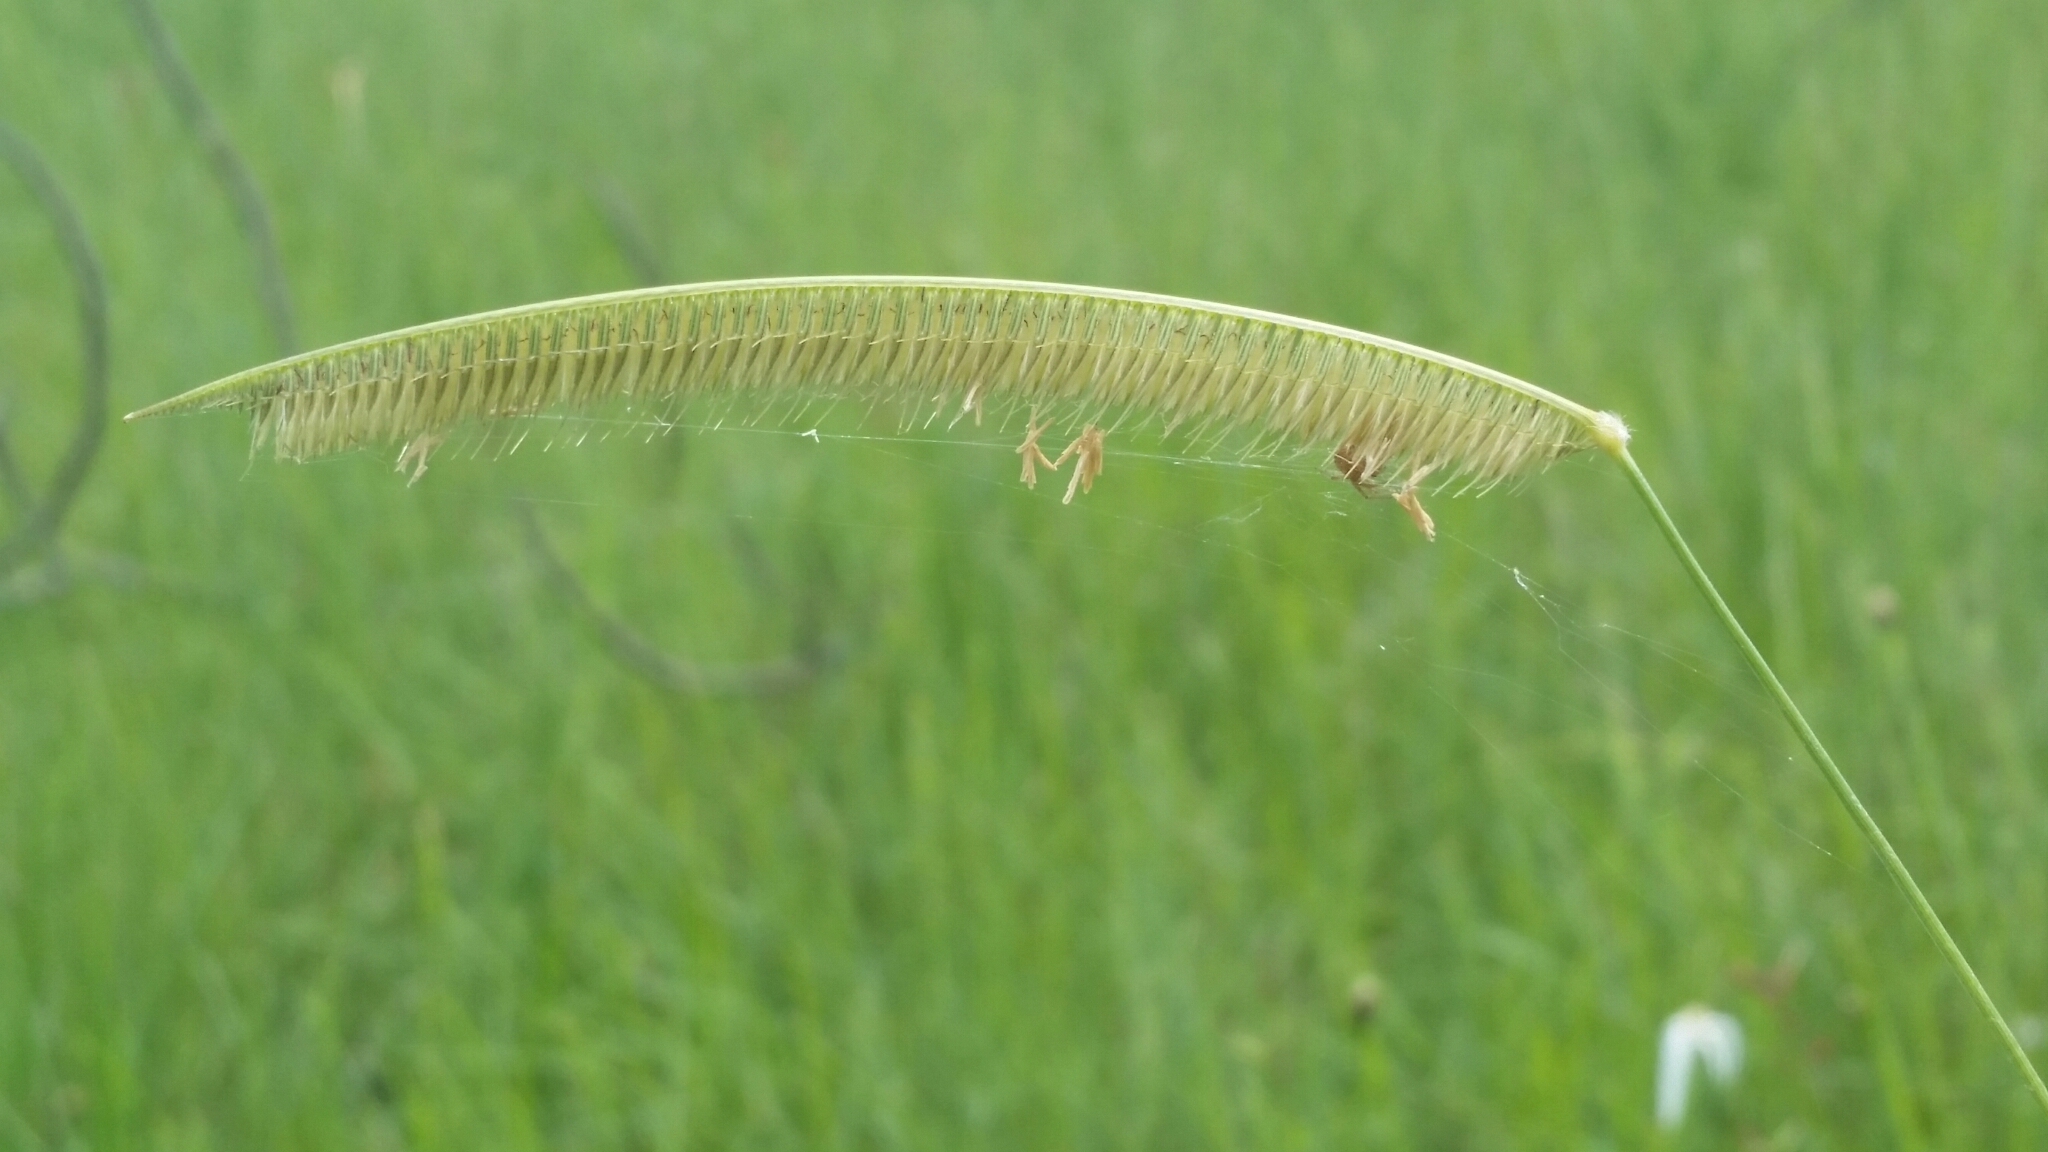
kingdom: Plantae
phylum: Tracheophyta
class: Liliopsida
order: Poales
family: Poaceae
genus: Ctenium
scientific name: Ctenium aromaticum
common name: Toothache grass
